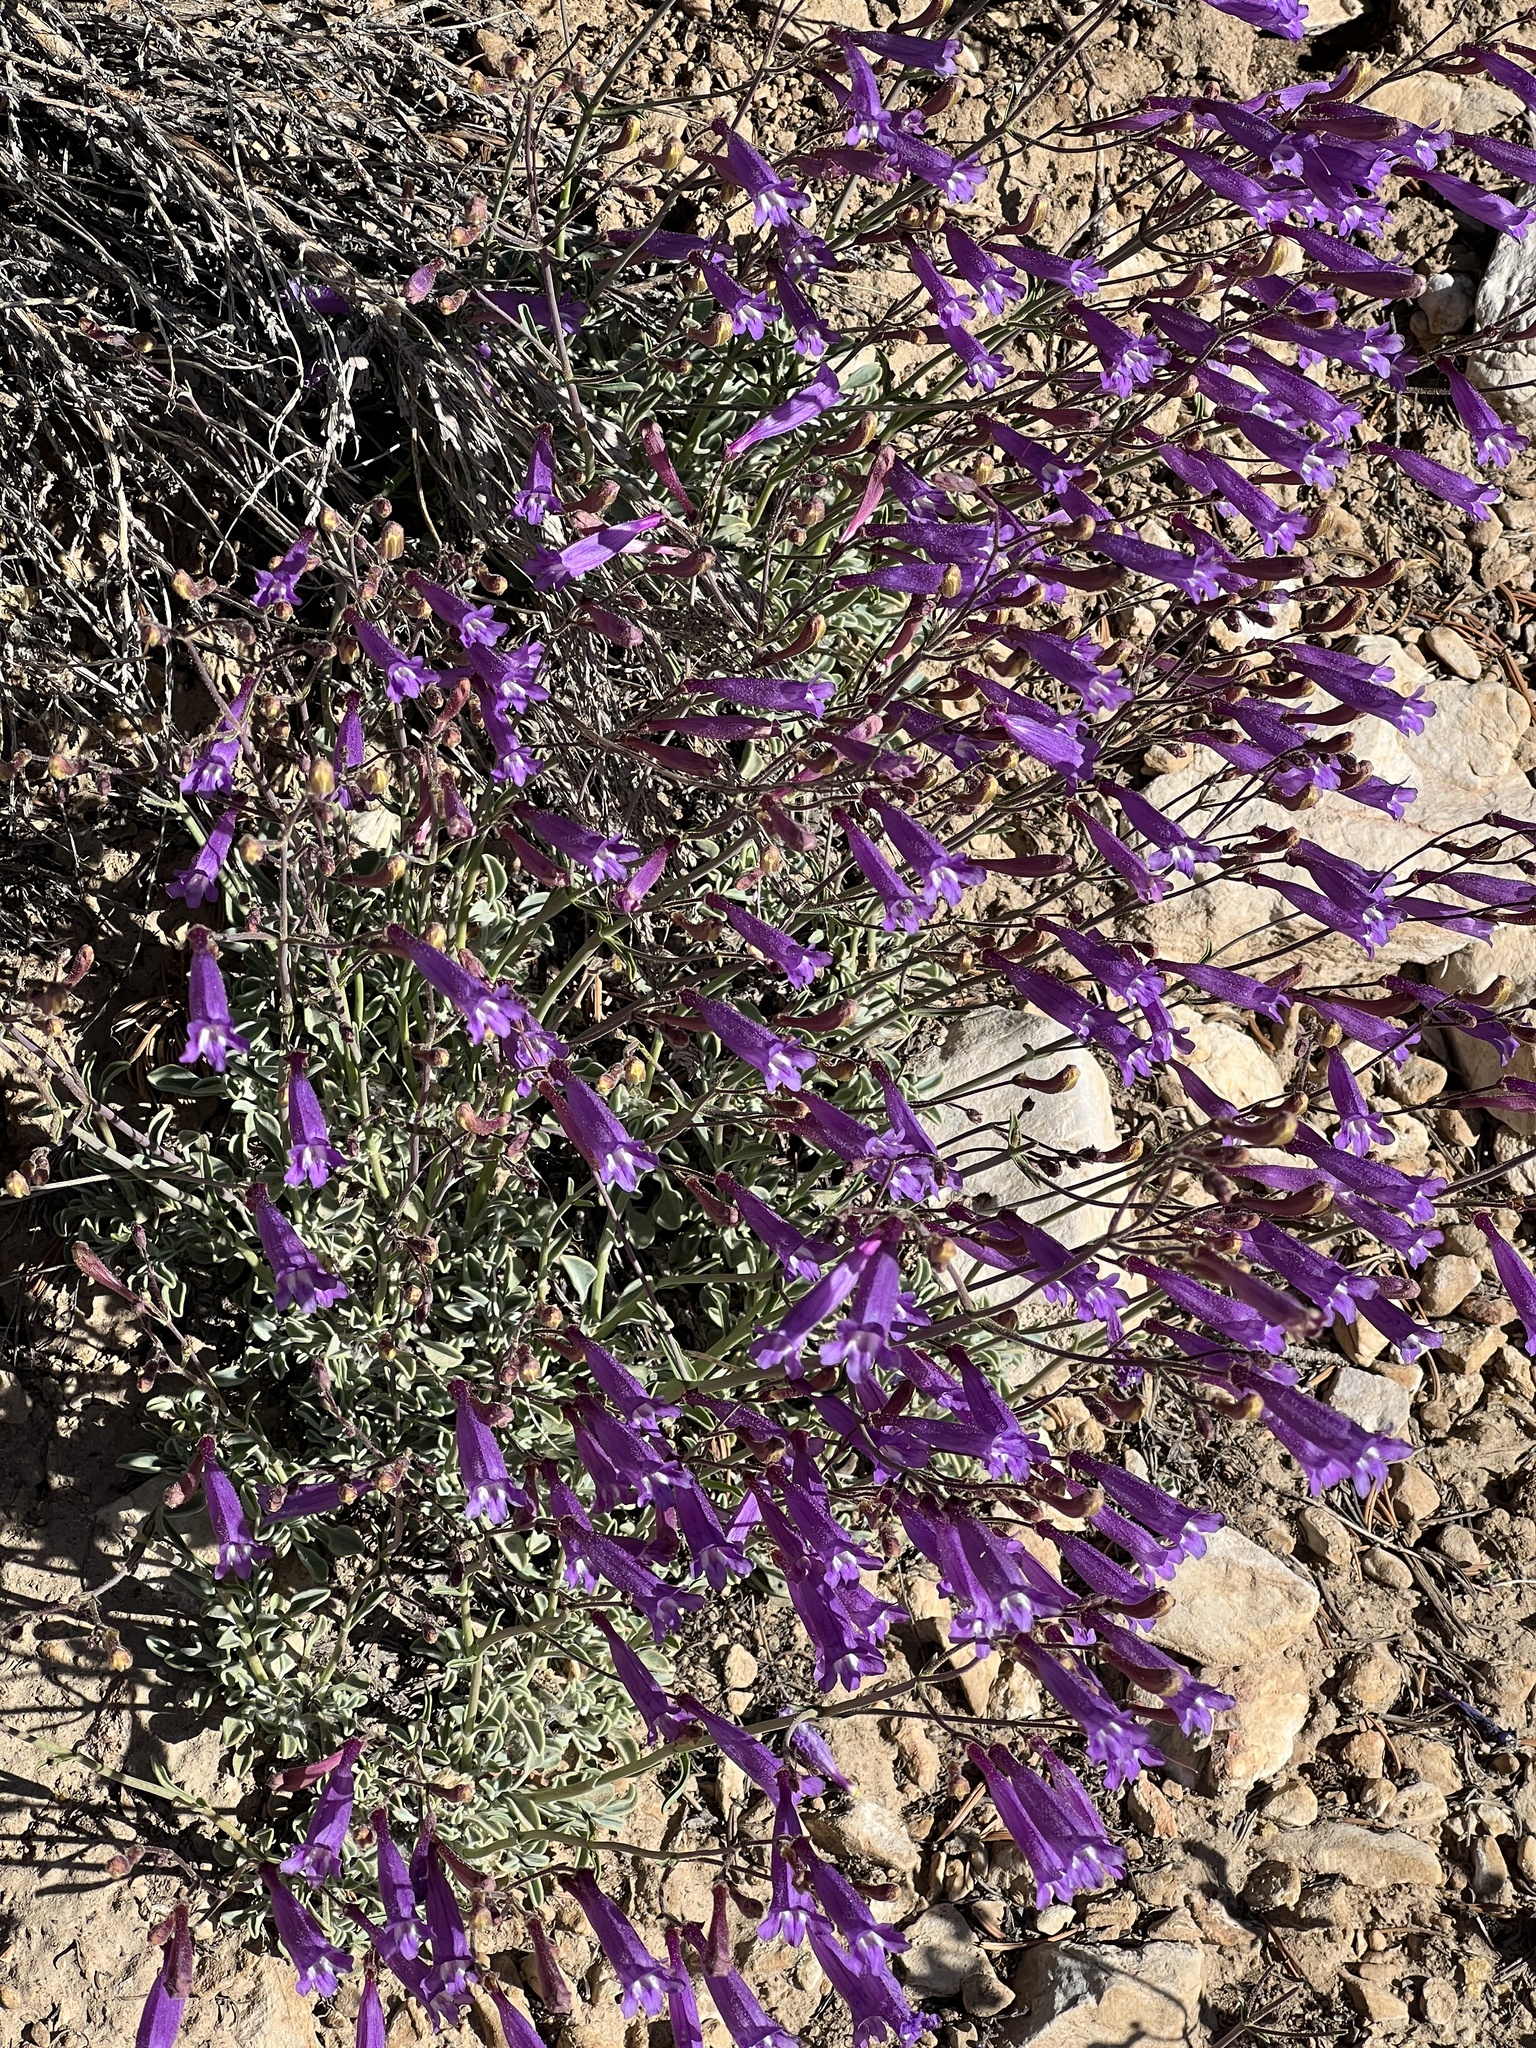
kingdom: Plantae
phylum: Tracheophyta
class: Magnoliopsida
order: Lamiales
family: Plantaginaceae
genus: Penstemon
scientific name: Penstemon scapoides
